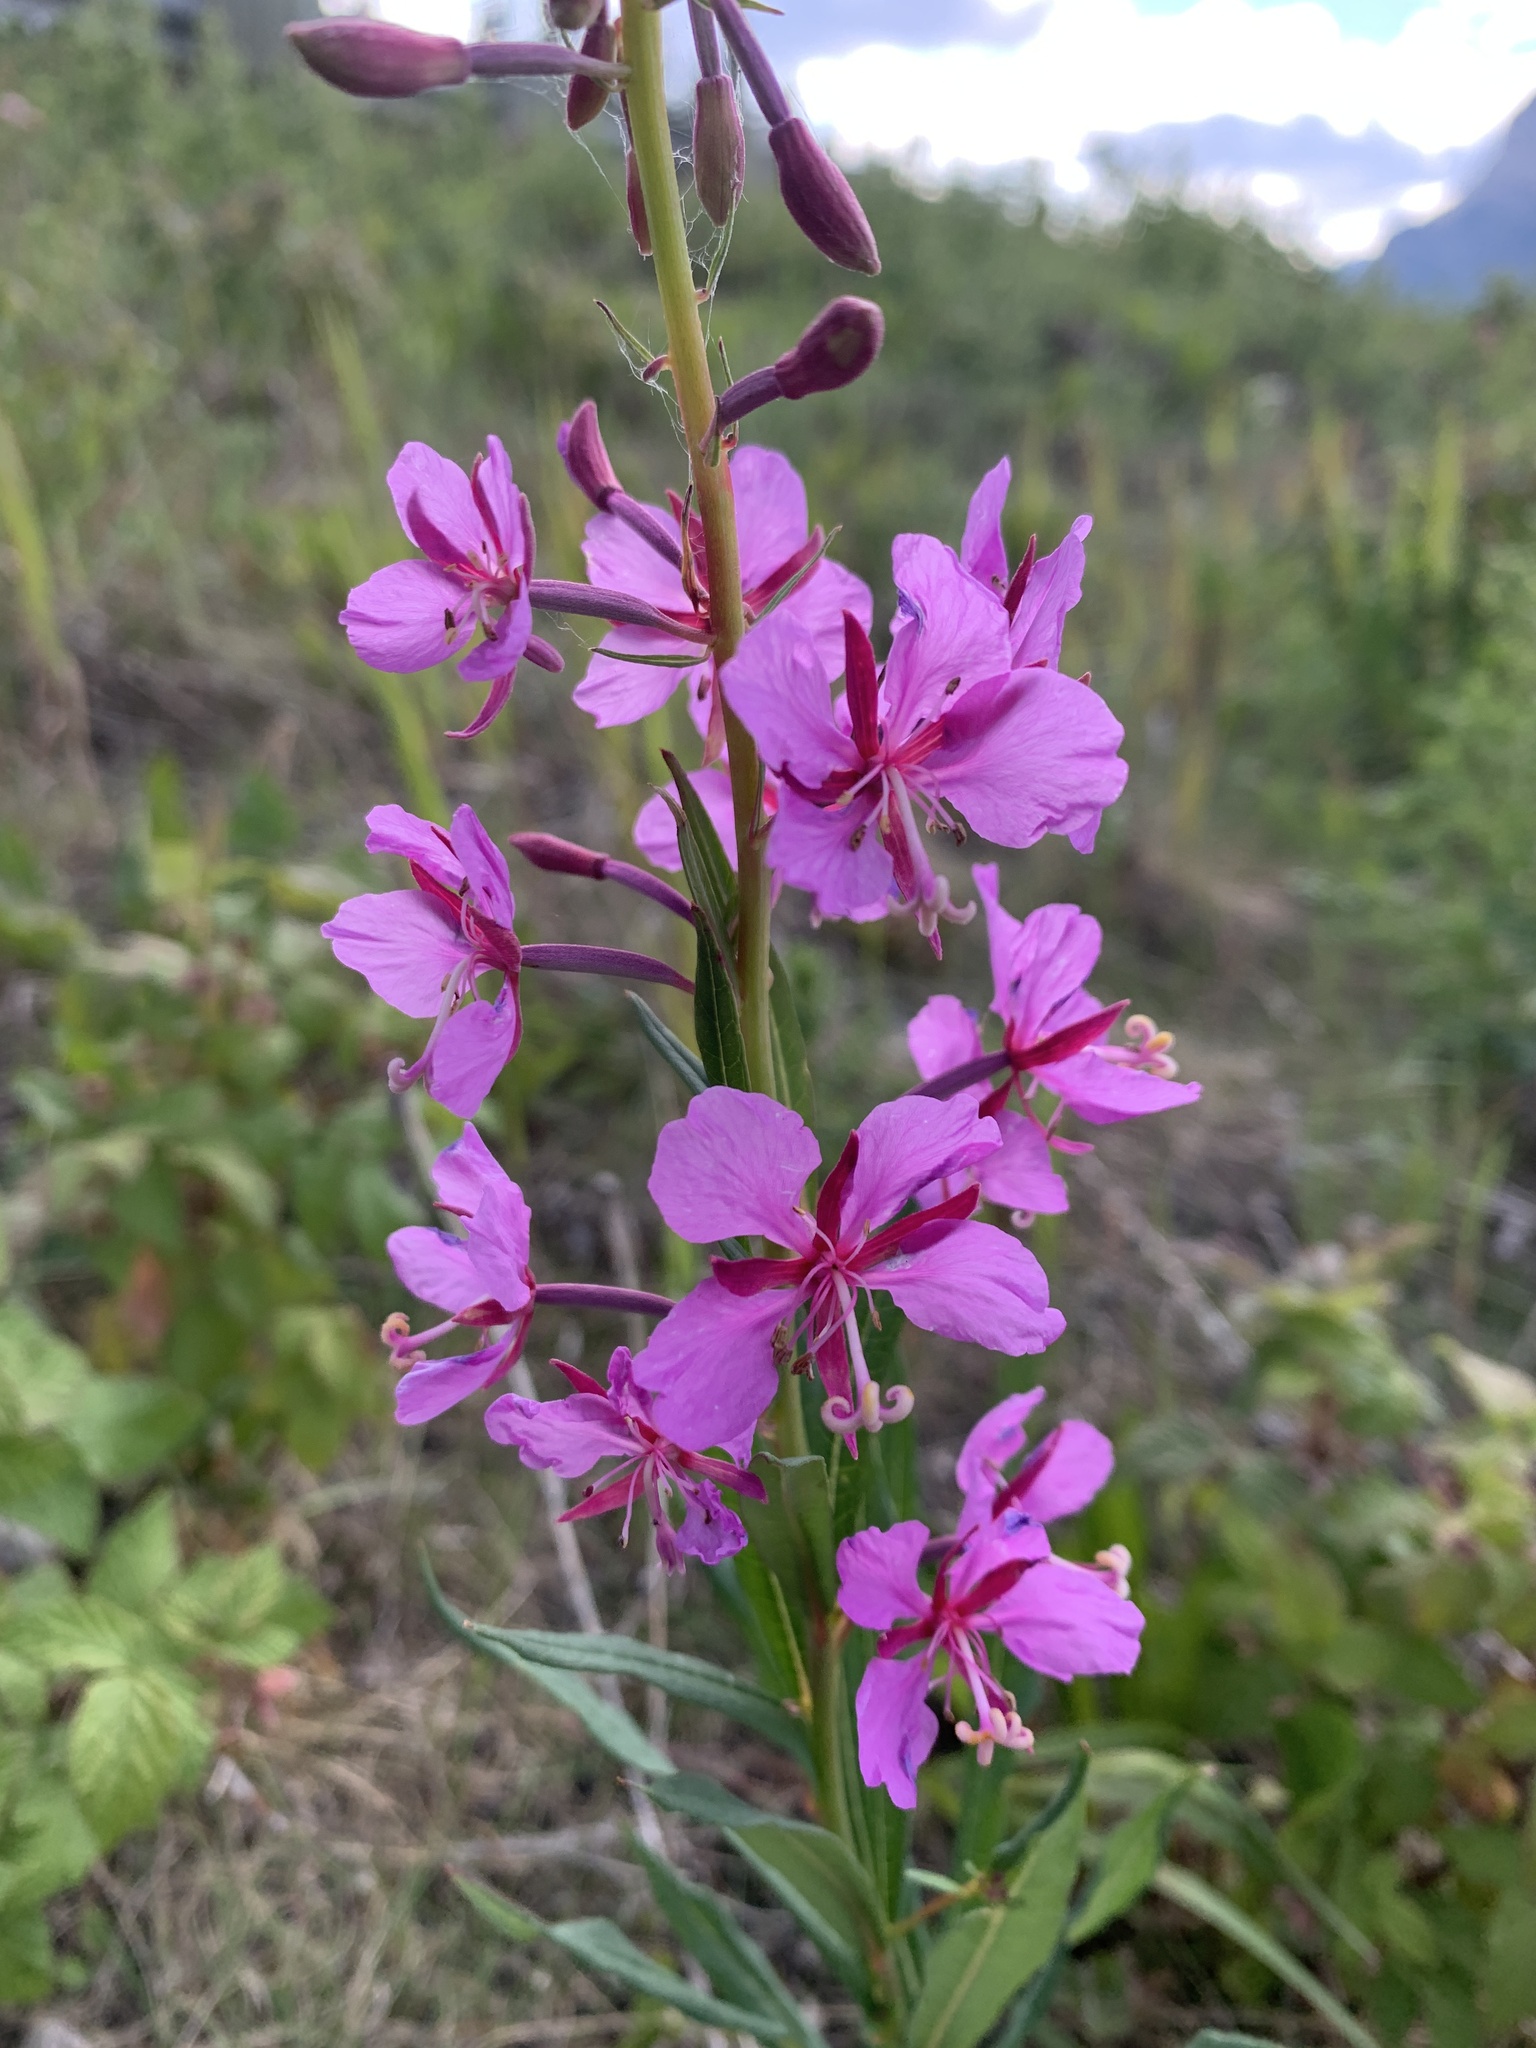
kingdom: Plantae
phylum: Tracheophyta
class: Magnoliopsida
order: Myrtales
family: Onagraceae
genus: Chamaenerion
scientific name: Chamaenerion angustifolium
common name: Fireweed
